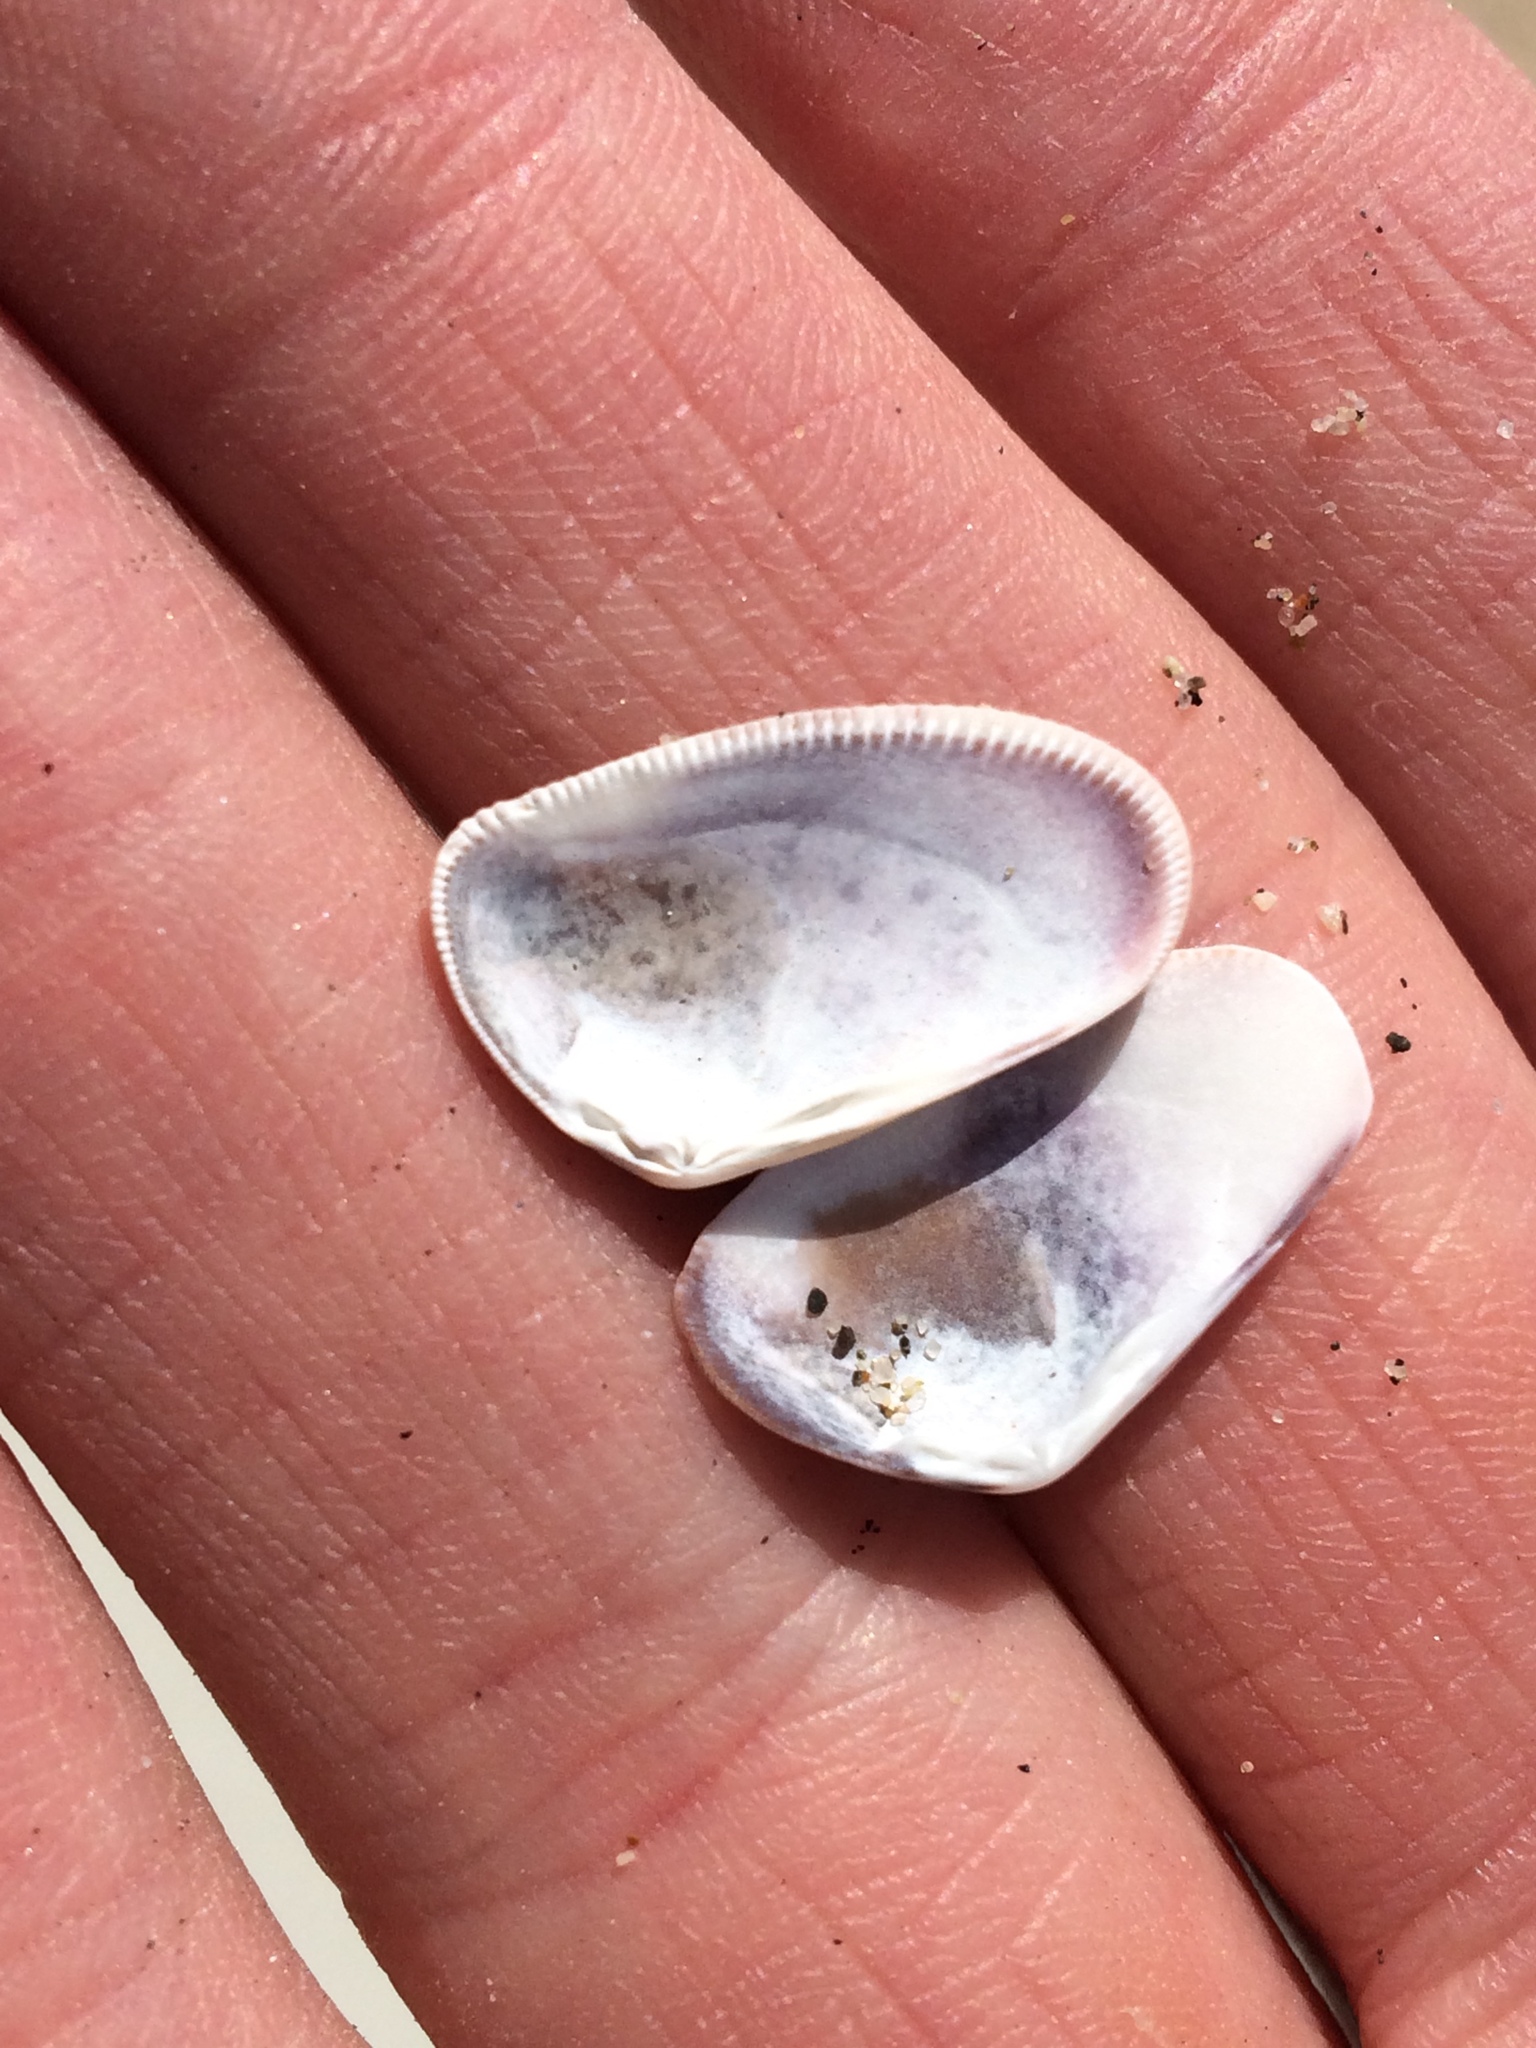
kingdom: Animalia
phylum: Mollusca
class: Bivalvia
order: Cardiida
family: Donacidae
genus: Donax
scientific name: Donax gouldii
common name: Gould beanclam
